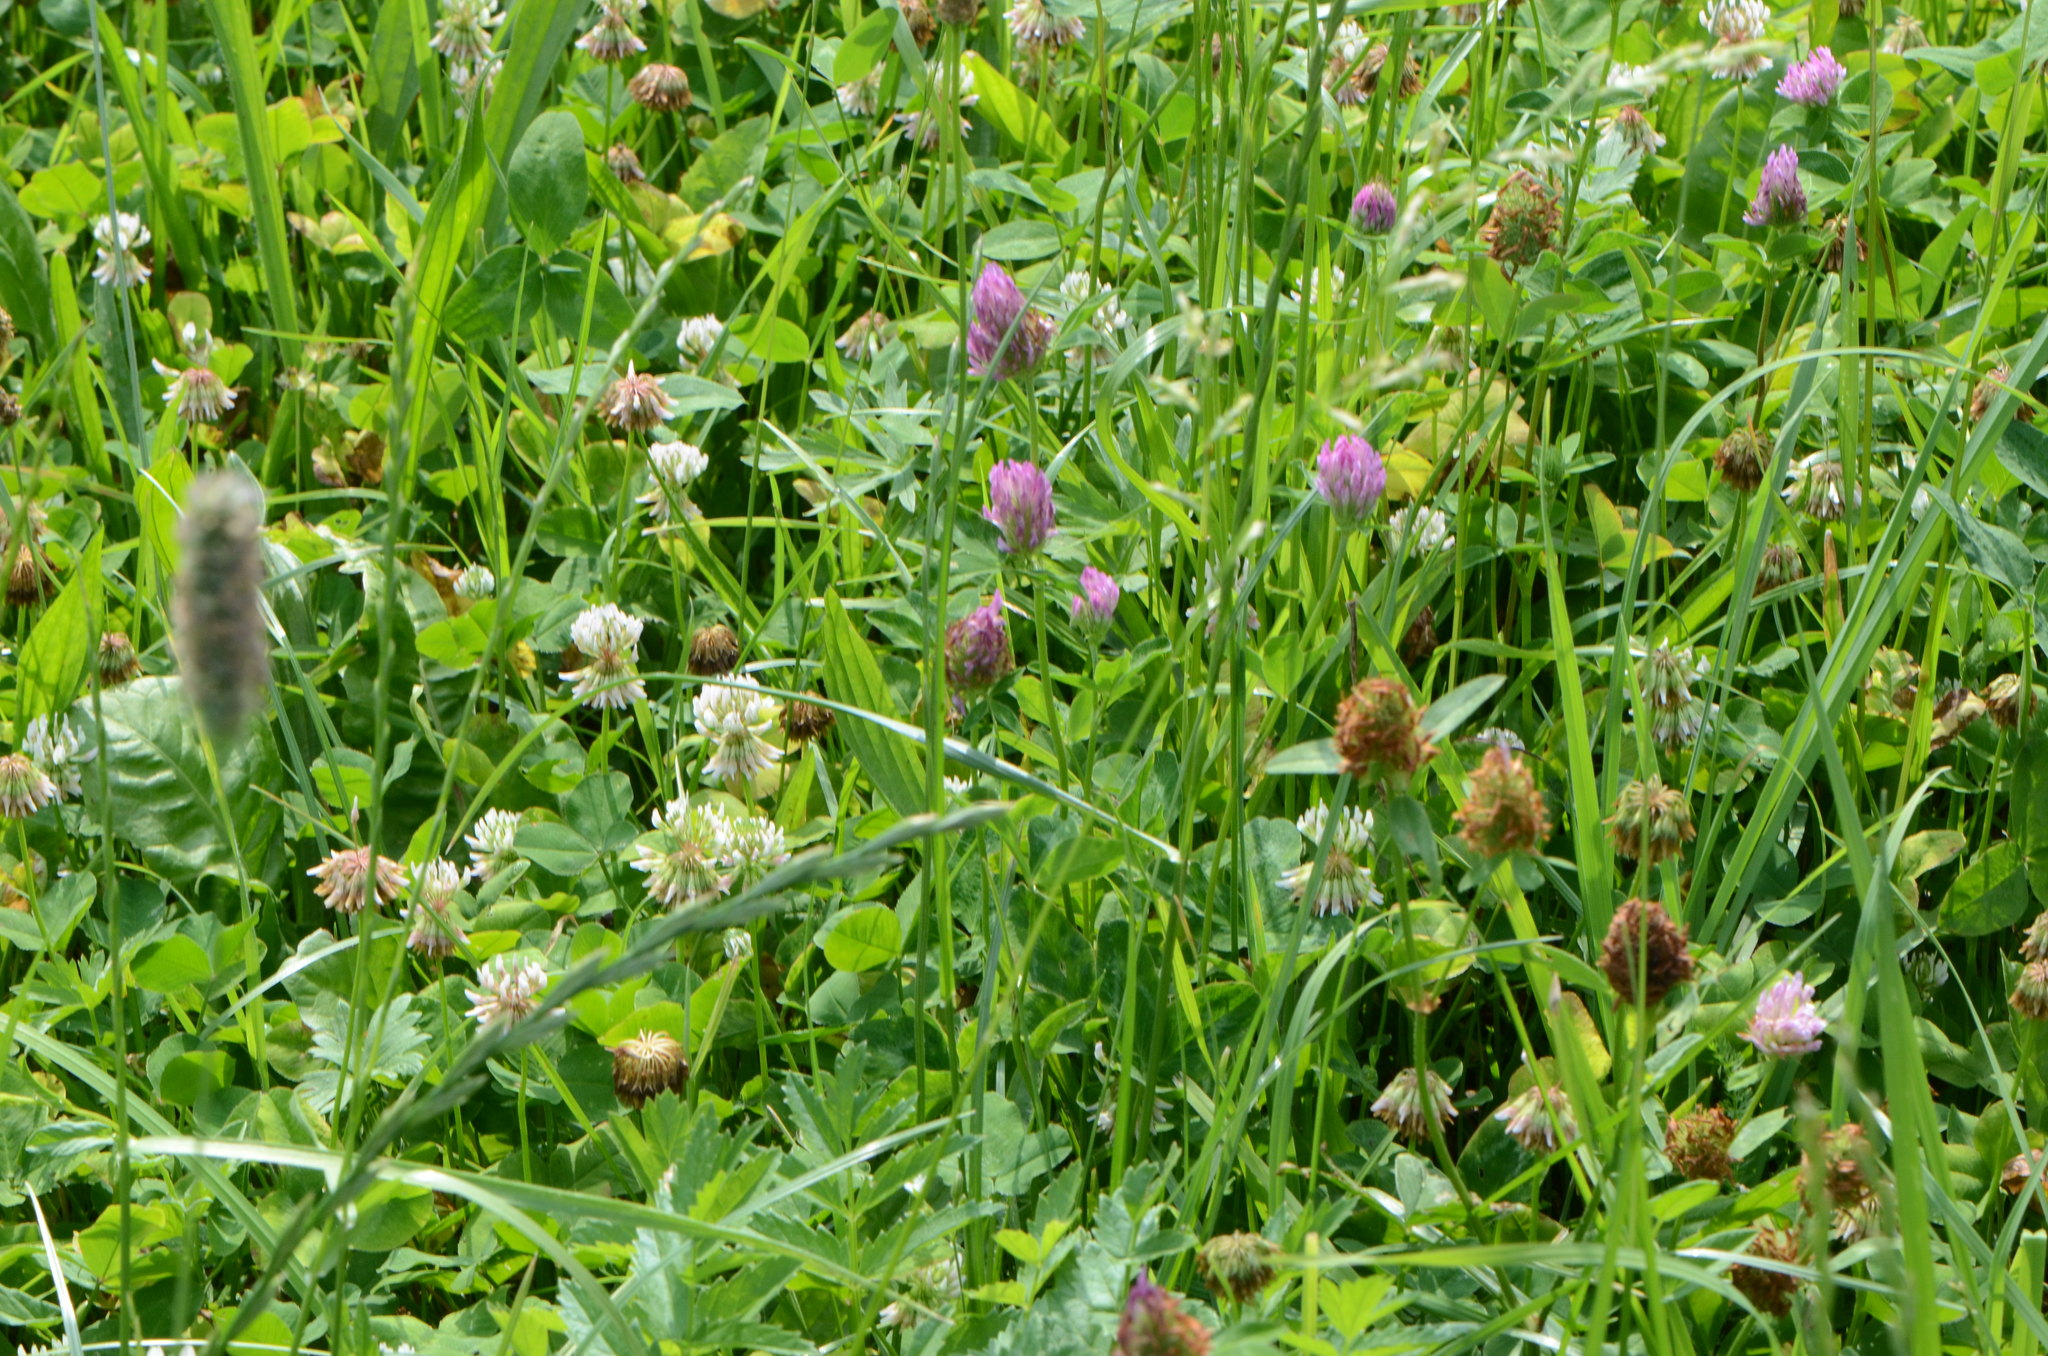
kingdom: Plantae
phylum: Tracheophyta
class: Magnoliopsida
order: Fabales
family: Fabaceae
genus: Trifolium
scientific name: Trifolium repens
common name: White clover
